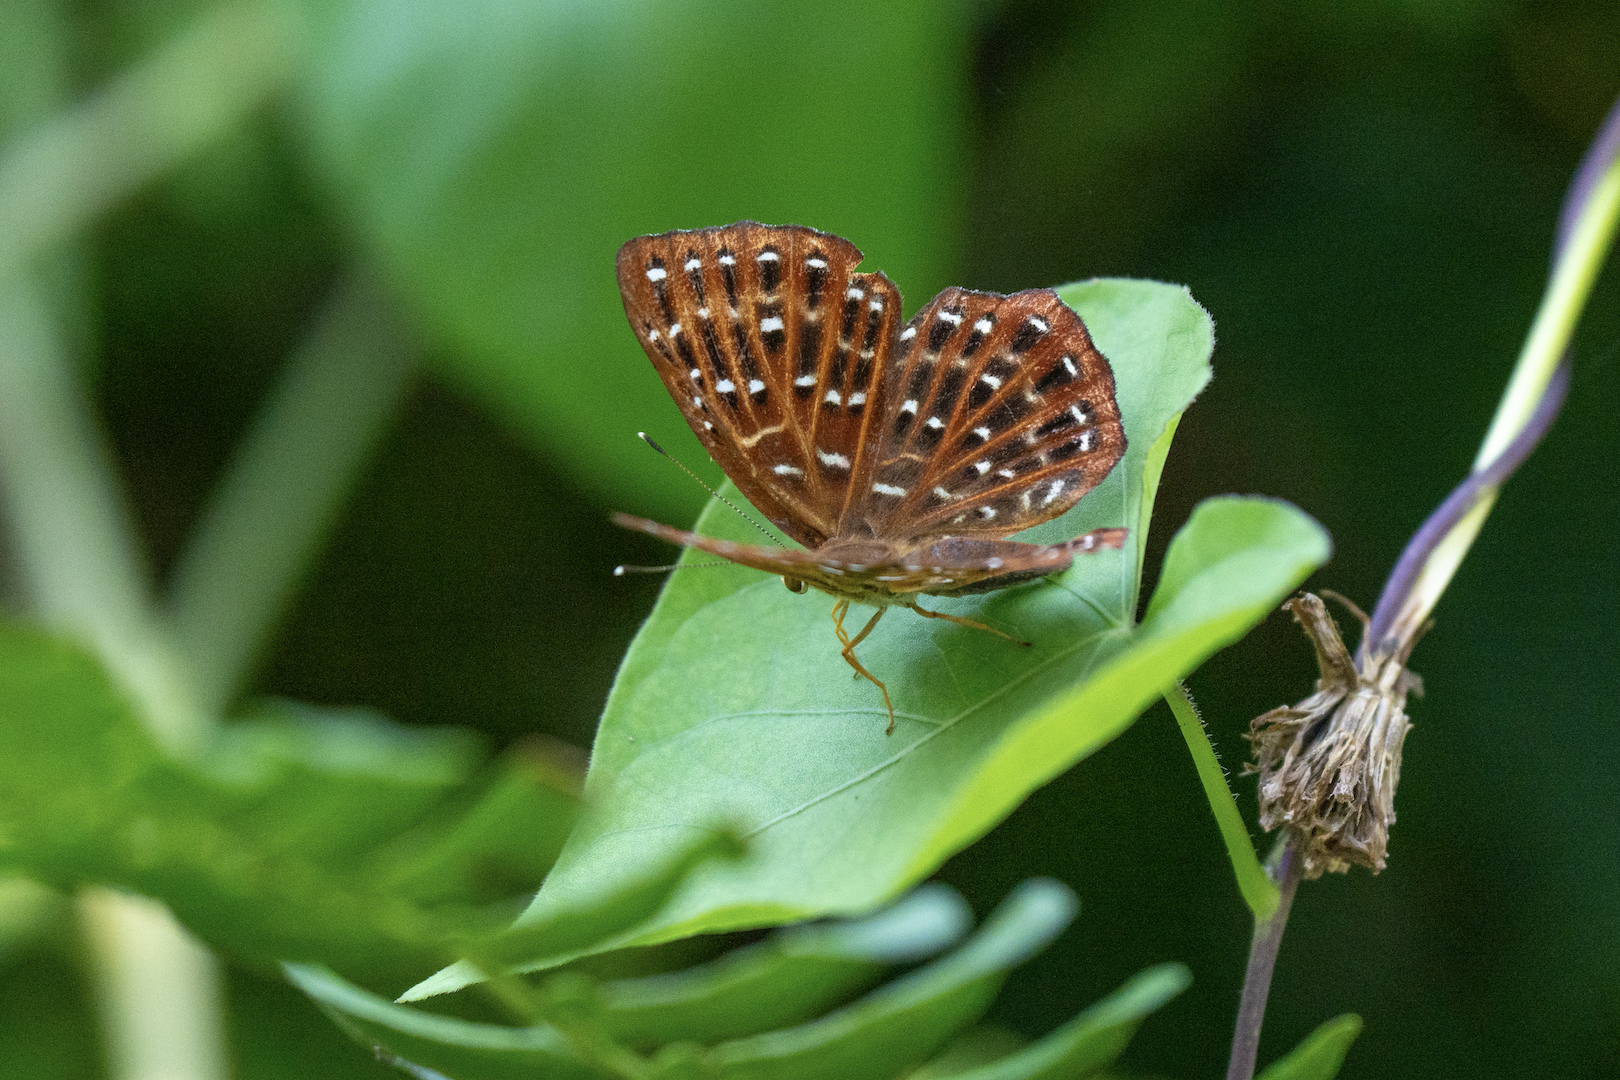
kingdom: Animalia
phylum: Arthropoda
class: Insecta
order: Lepidoptera
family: Riodinidae
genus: Zemeros
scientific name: Zemeros flegyas
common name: Punchinello
